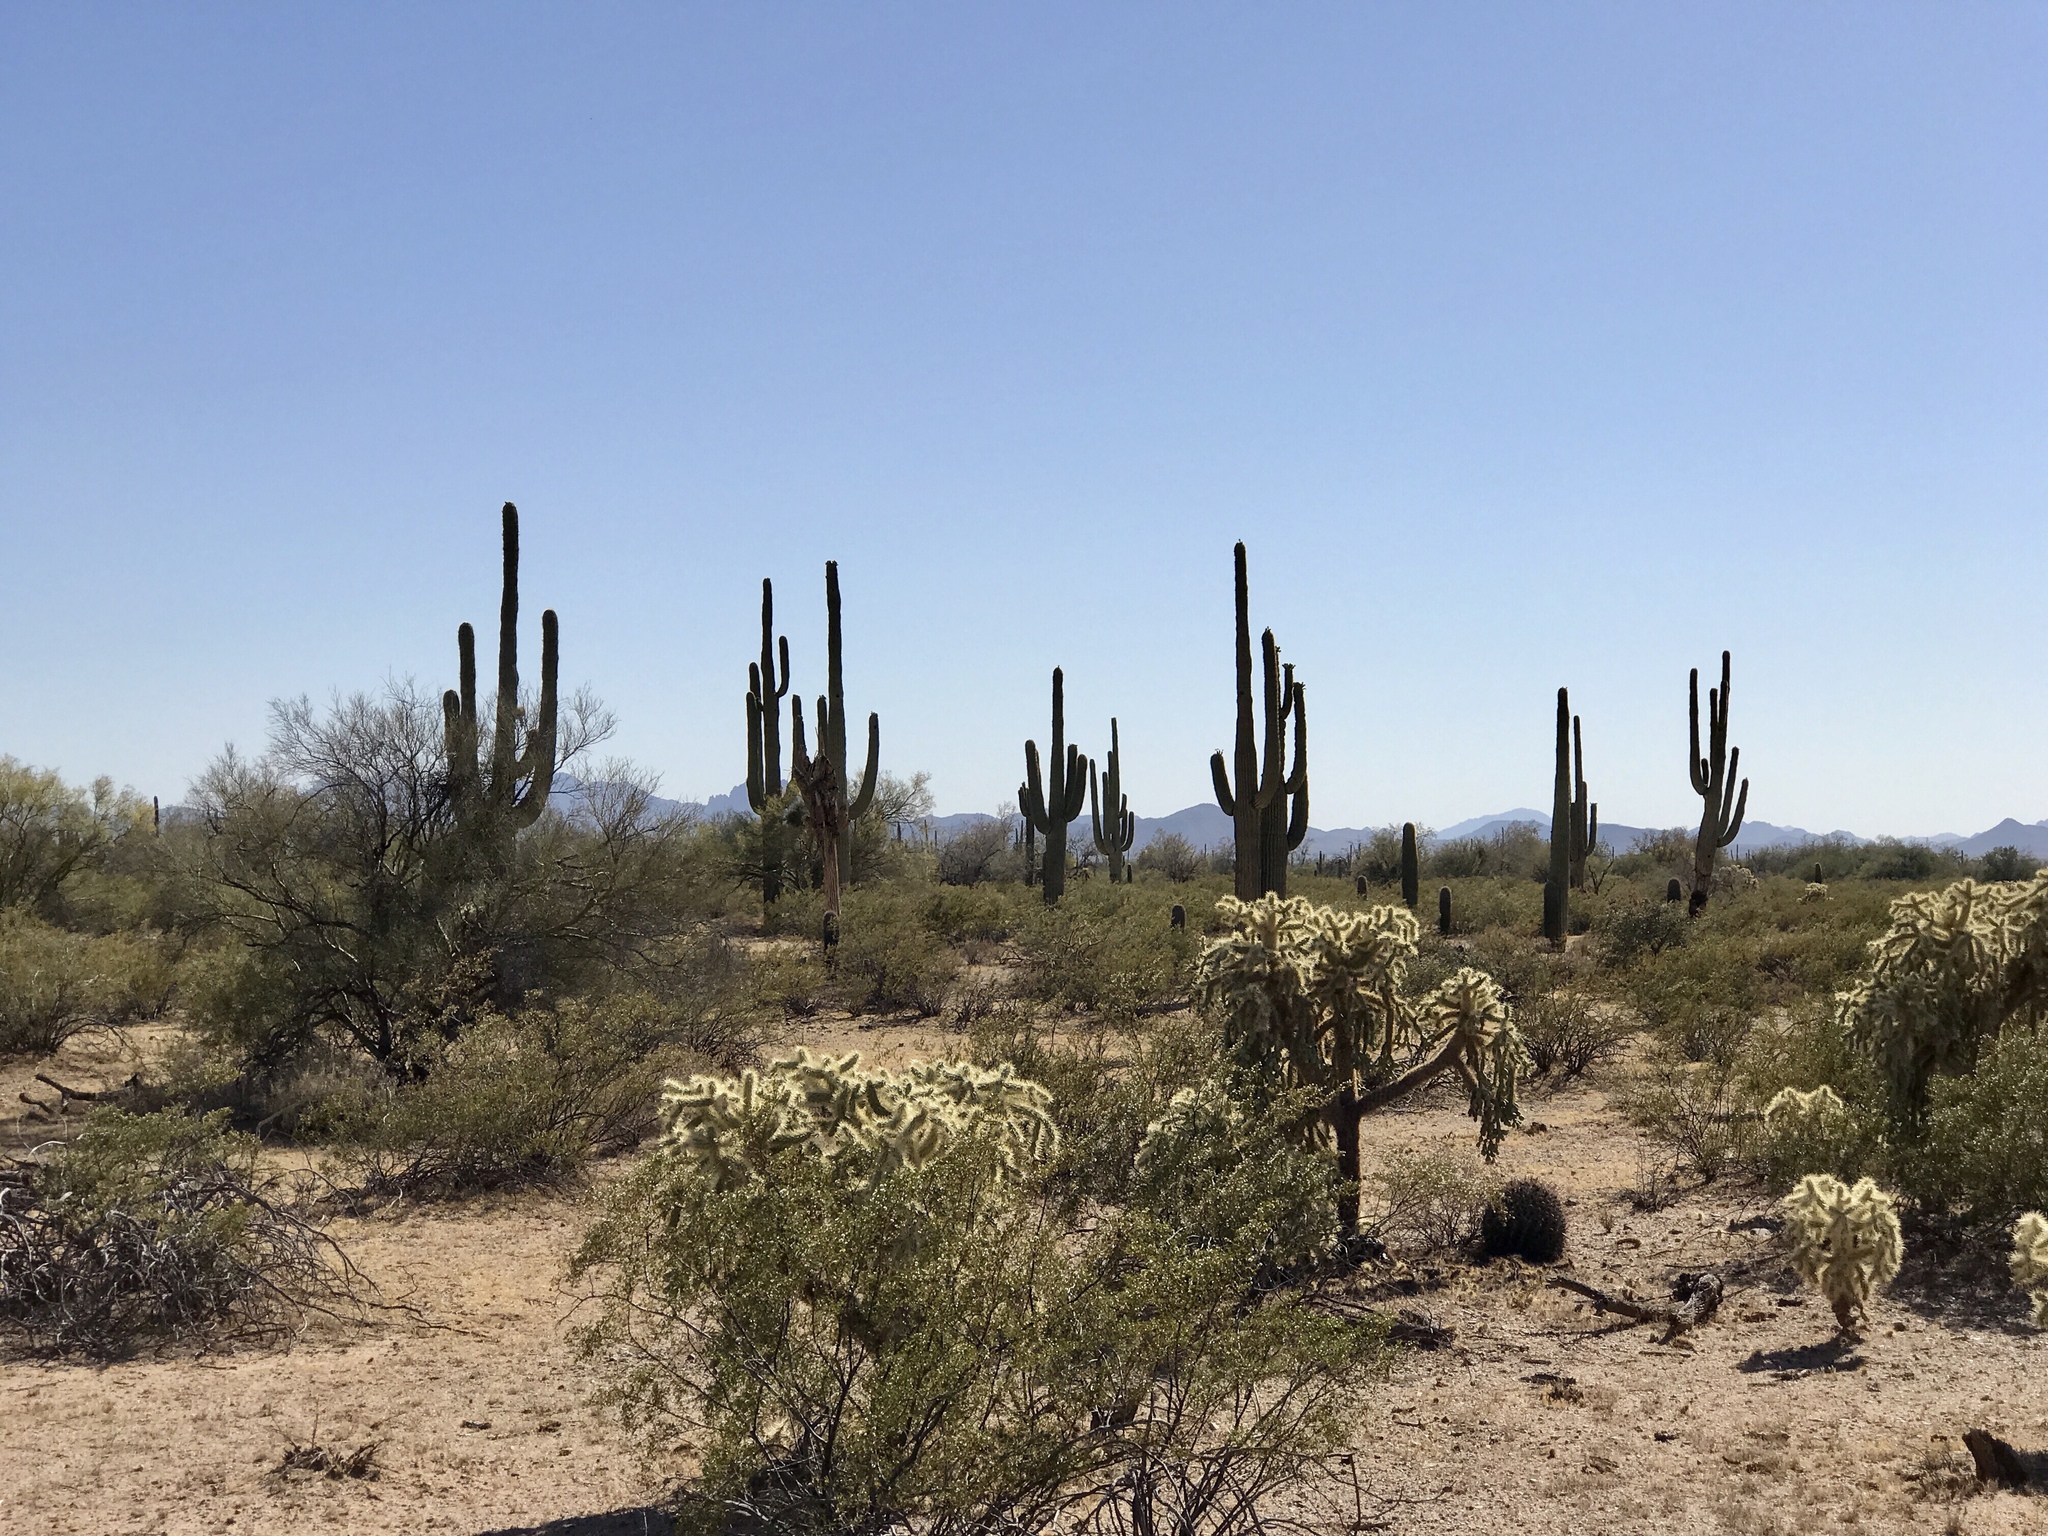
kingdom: Plantae
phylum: Tracheophyta
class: Magnoliopsida
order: Caryophyllales
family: Cactaceae
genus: Carnegiea
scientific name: Carnegiea gigantea
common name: Saguaro
